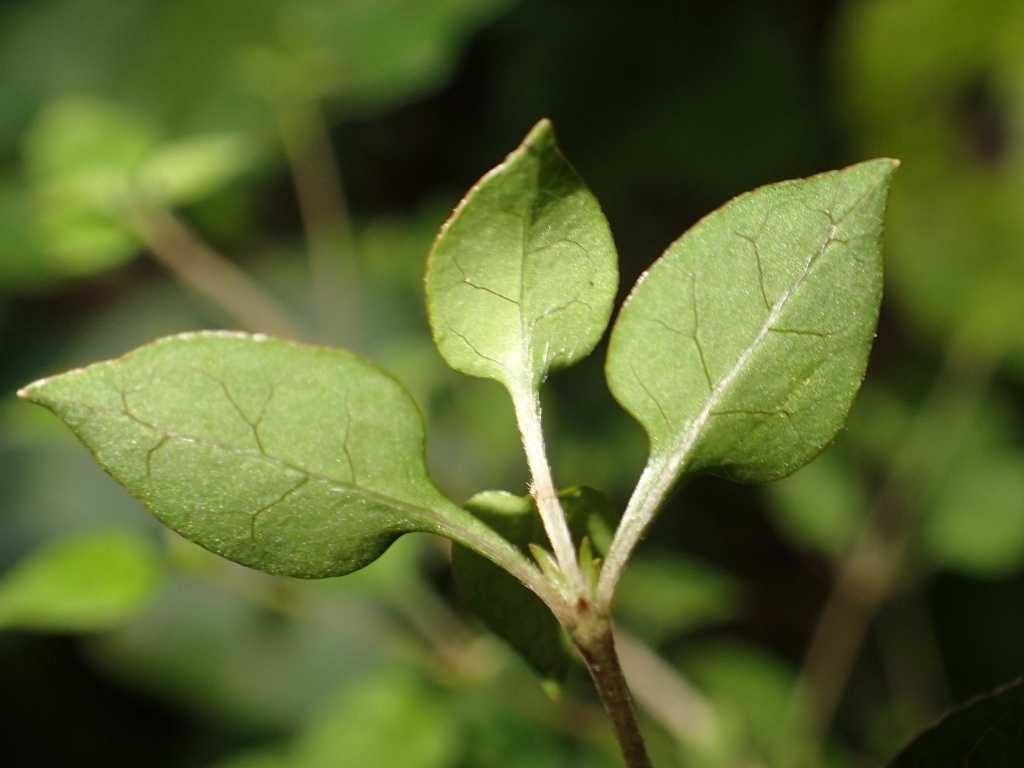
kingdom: Plantae
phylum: Tracheophyta
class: Magnoliopsida
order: Gentianales
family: Rubiaceae
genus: Coprosma
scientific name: Coprosma areolata
